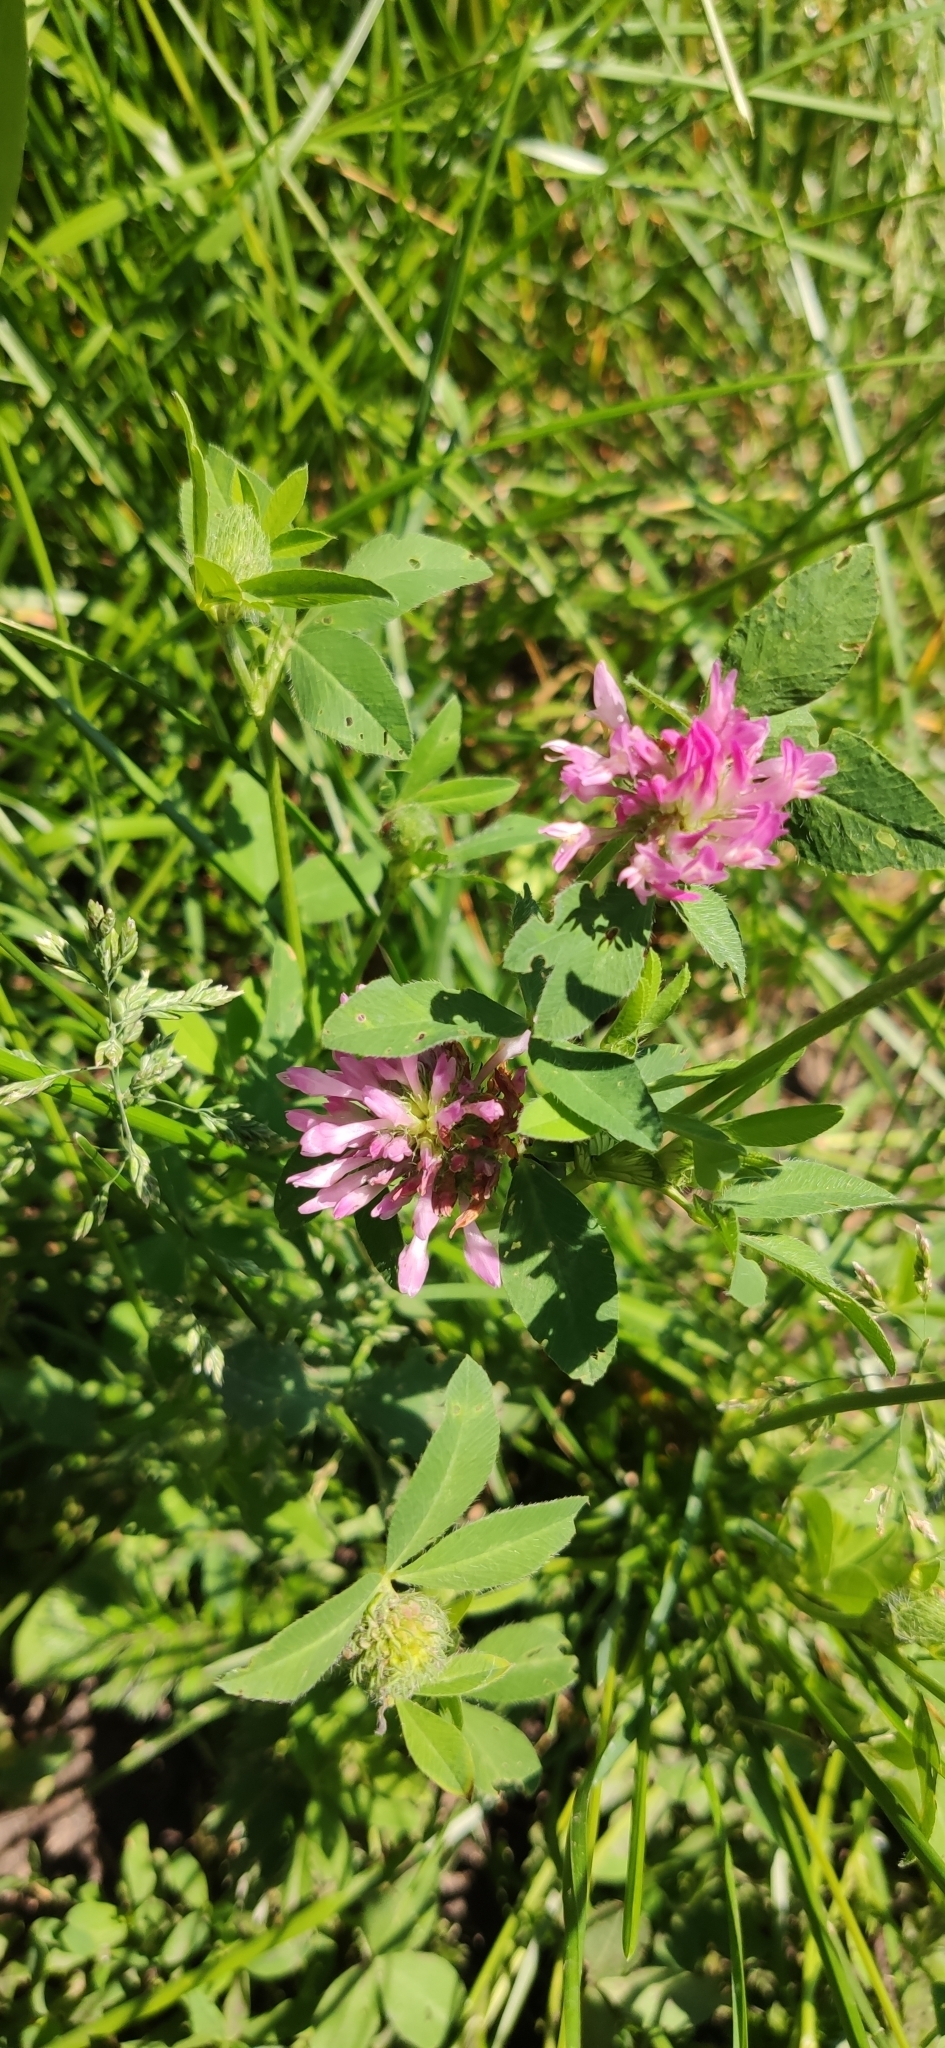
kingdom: Plantae
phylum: Tracheophyta
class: Magnoliopsida
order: Fabales
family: Fabaceae
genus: Trifolium
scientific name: Trifolium medium
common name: Zigzag clover
